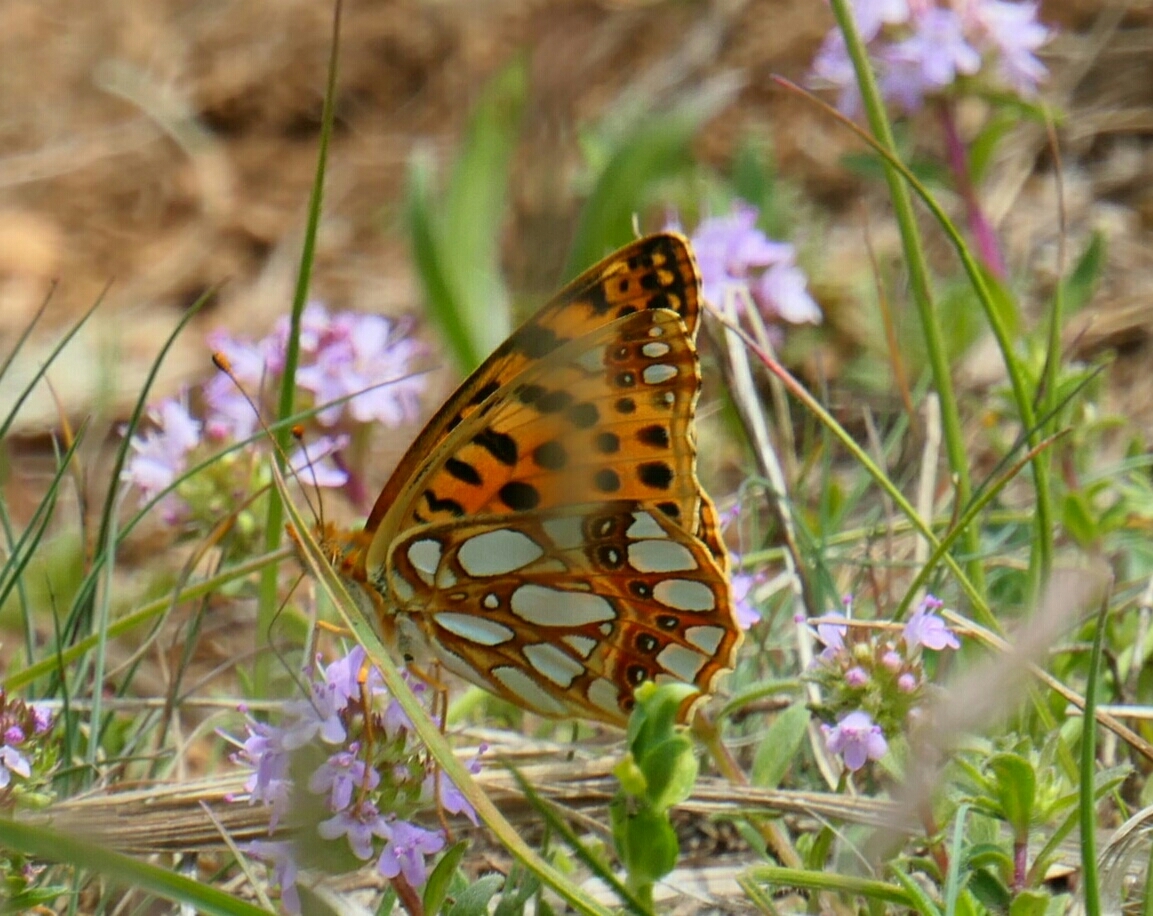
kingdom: Animalia
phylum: Arthropoda
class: Insecta
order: Lepidoptera
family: Nymphalidae
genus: Issoria
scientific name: Issoria lathonia
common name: Queen of spain fritillary
